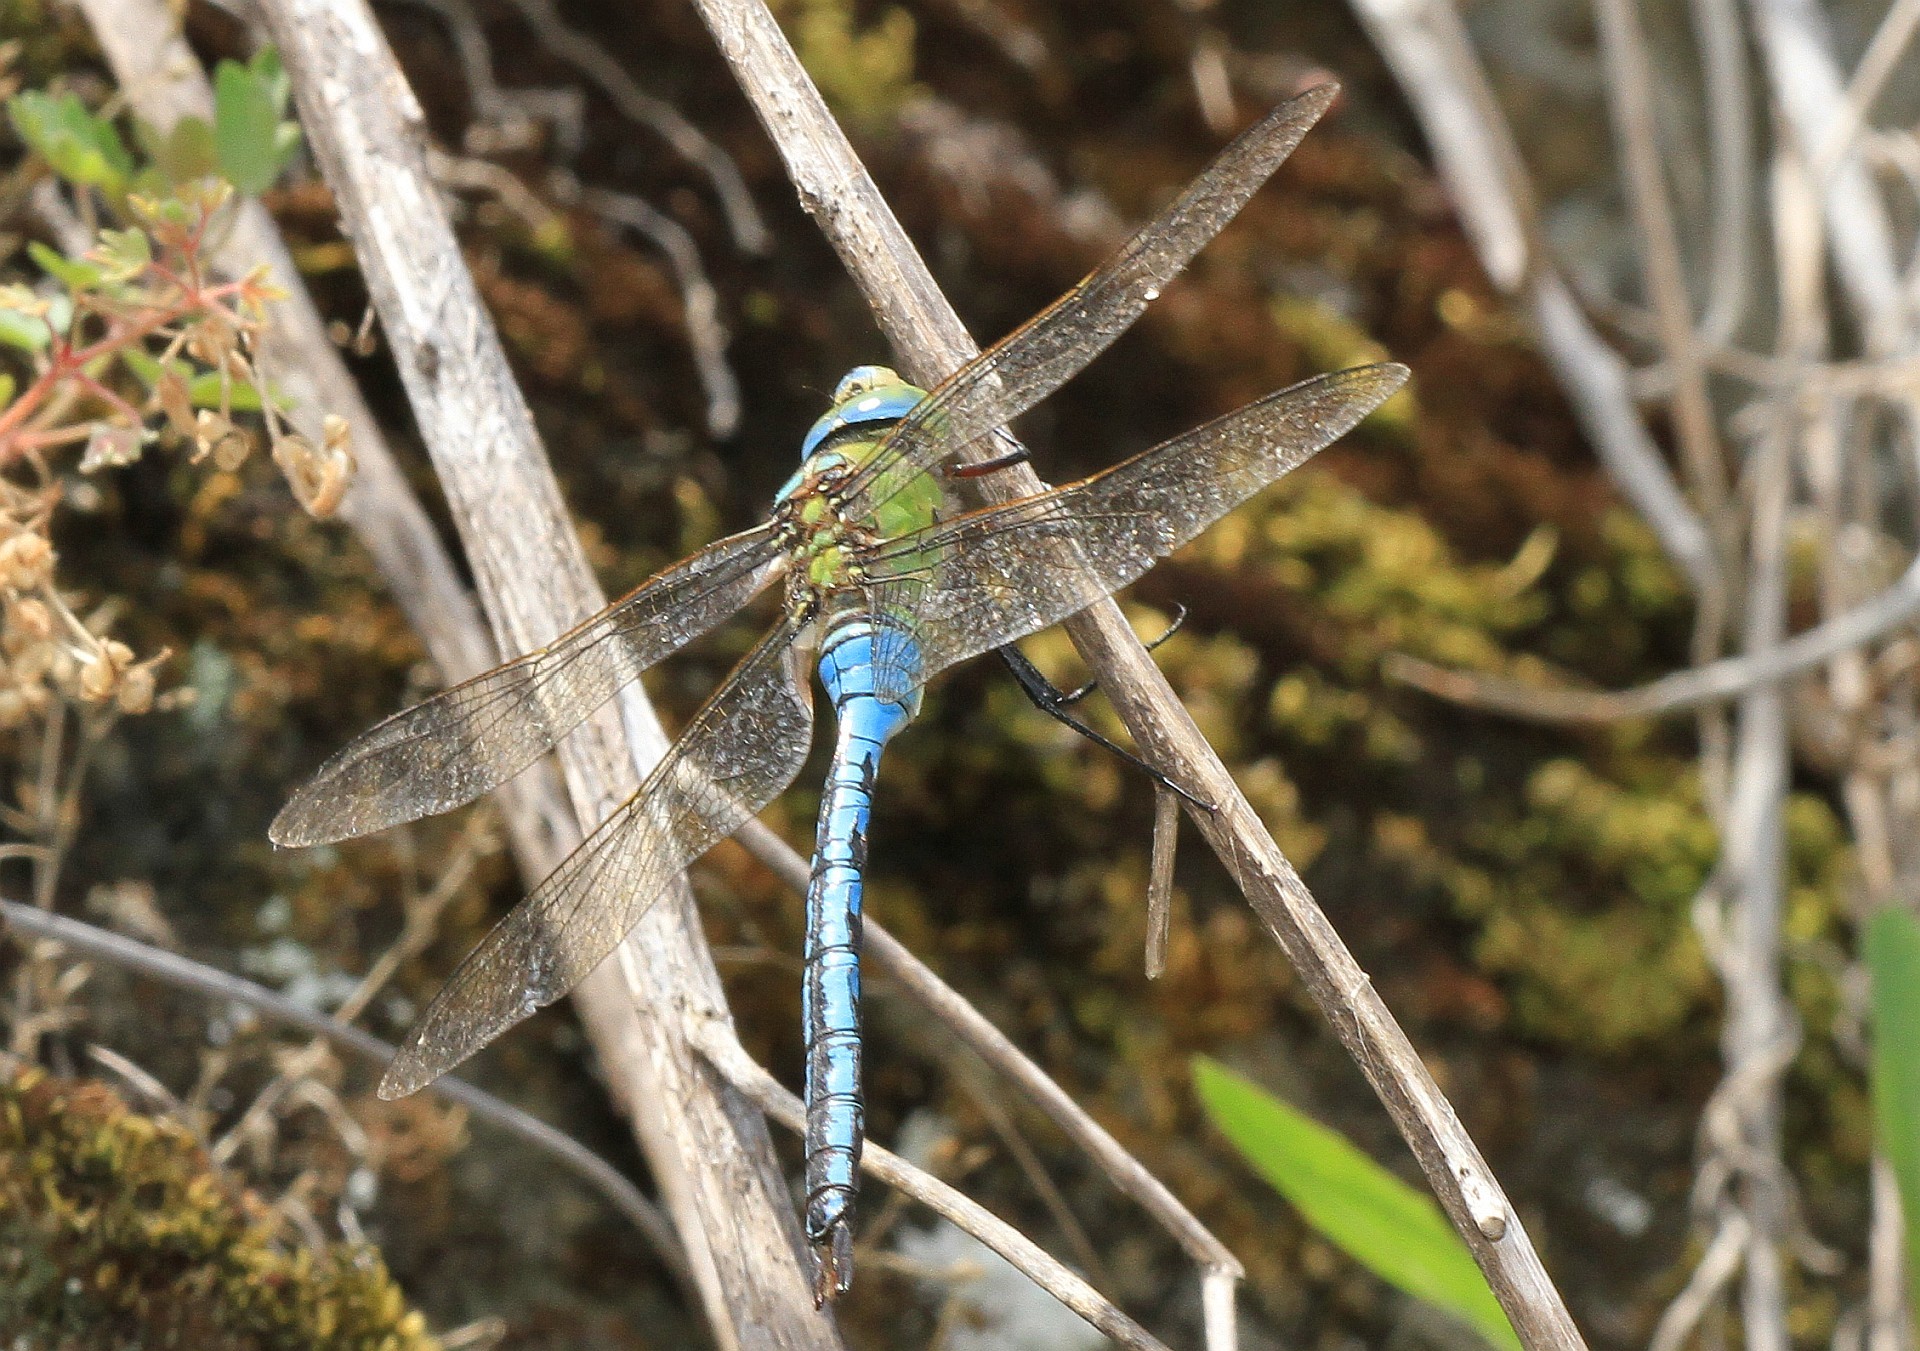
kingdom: Animalia
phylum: Arthropoda
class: Insecta
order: Odonata
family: Aeshnidae
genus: Anax
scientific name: Anax imperator
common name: Emperor dragonfly
